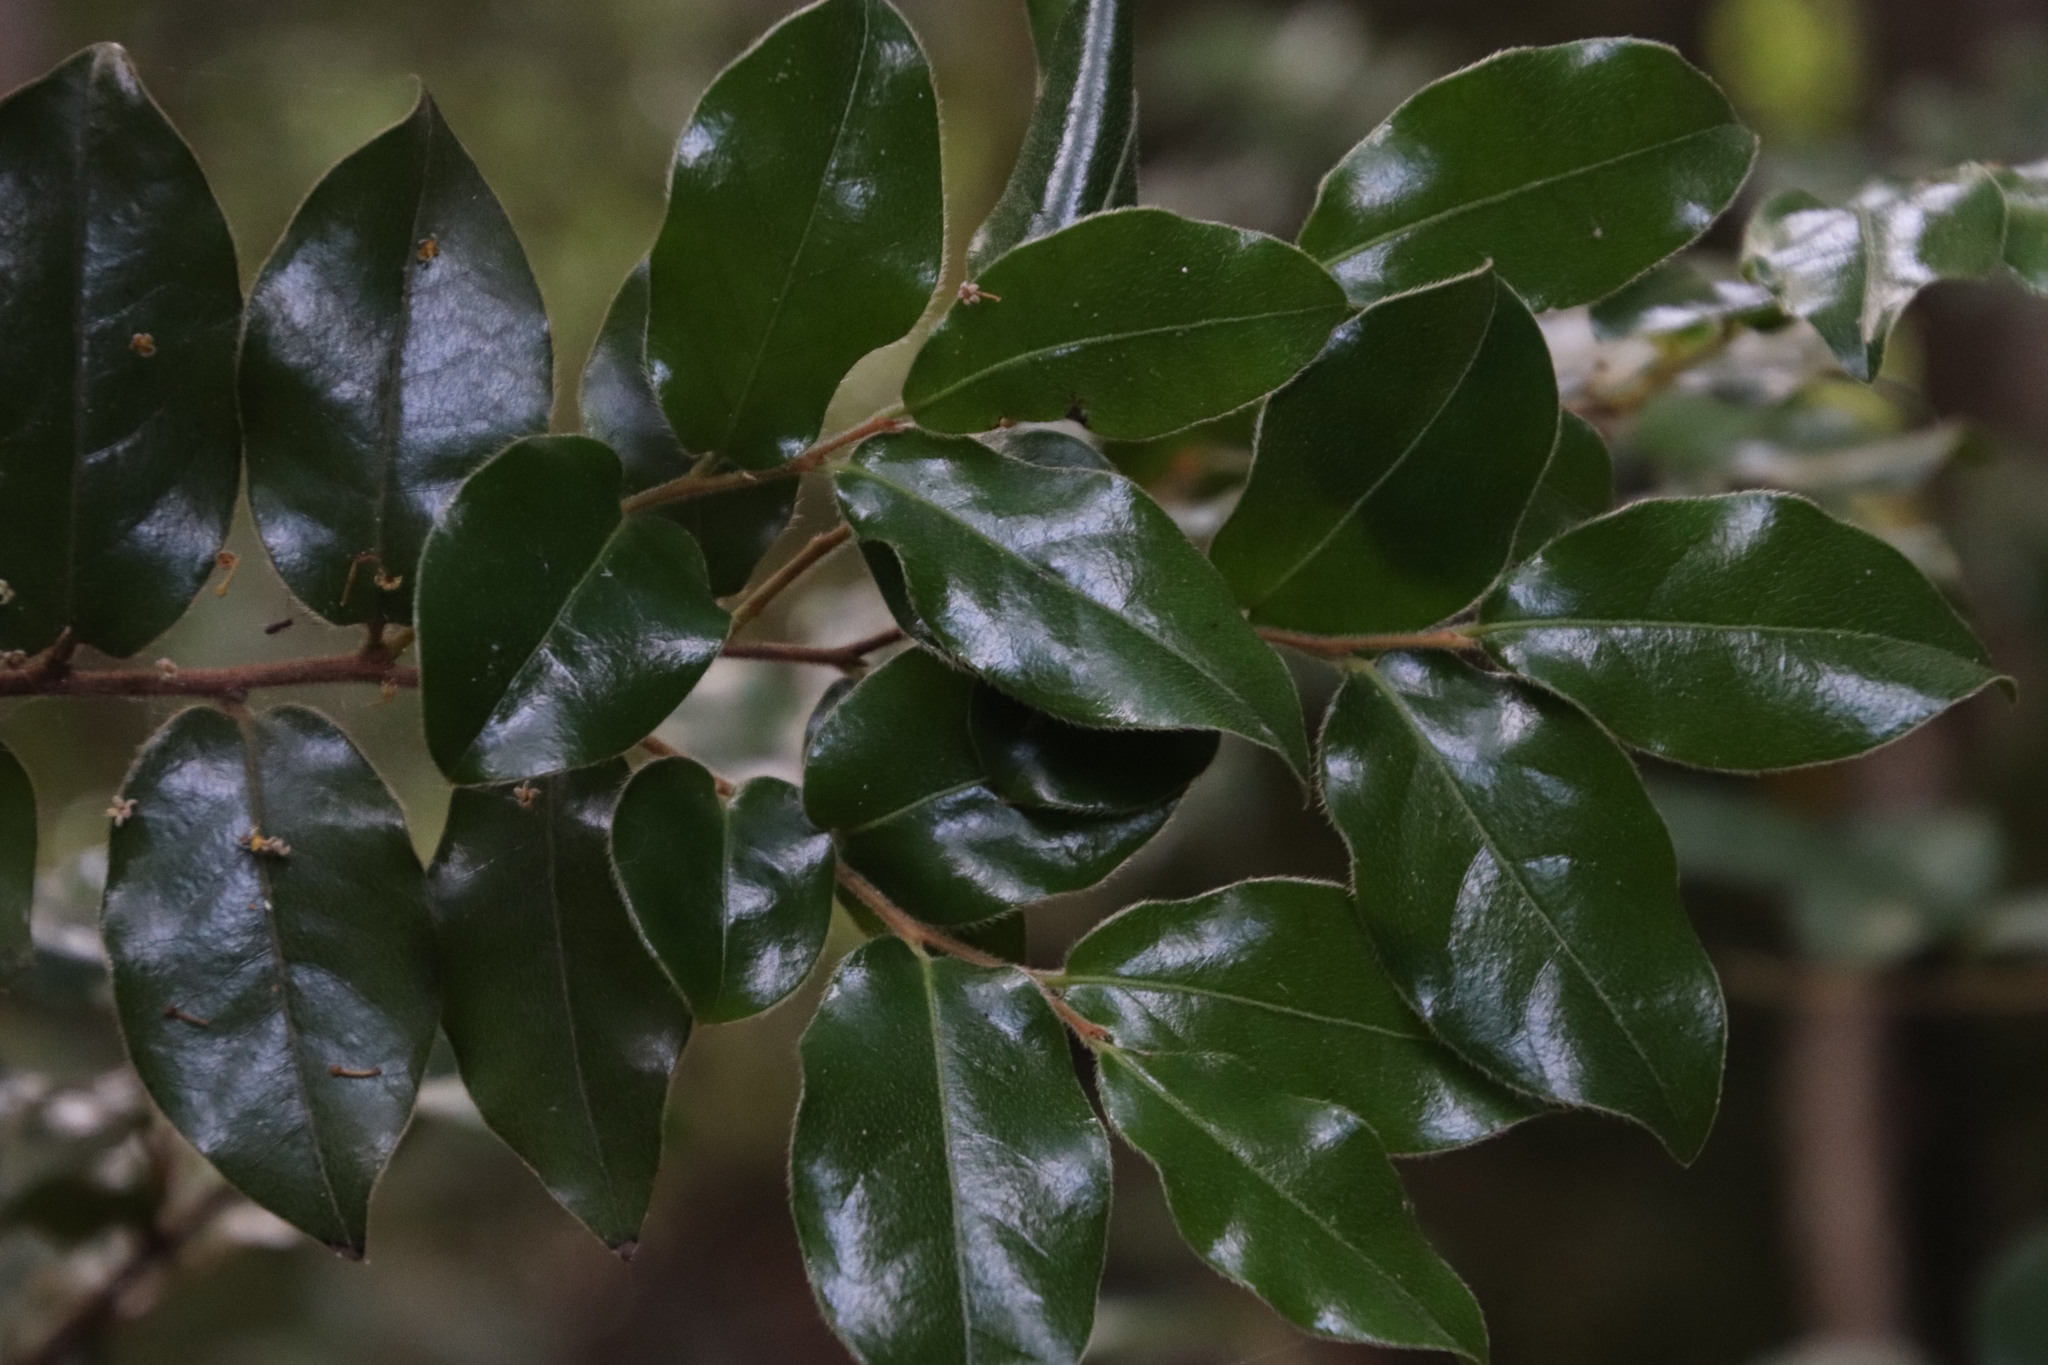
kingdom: Plantae
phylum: Tracheophyta
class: Magnoliopsida
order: Ericales
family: Ebenaceae
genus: Diospyros
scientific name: Diospyros whyteana
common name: Bladder-nut
